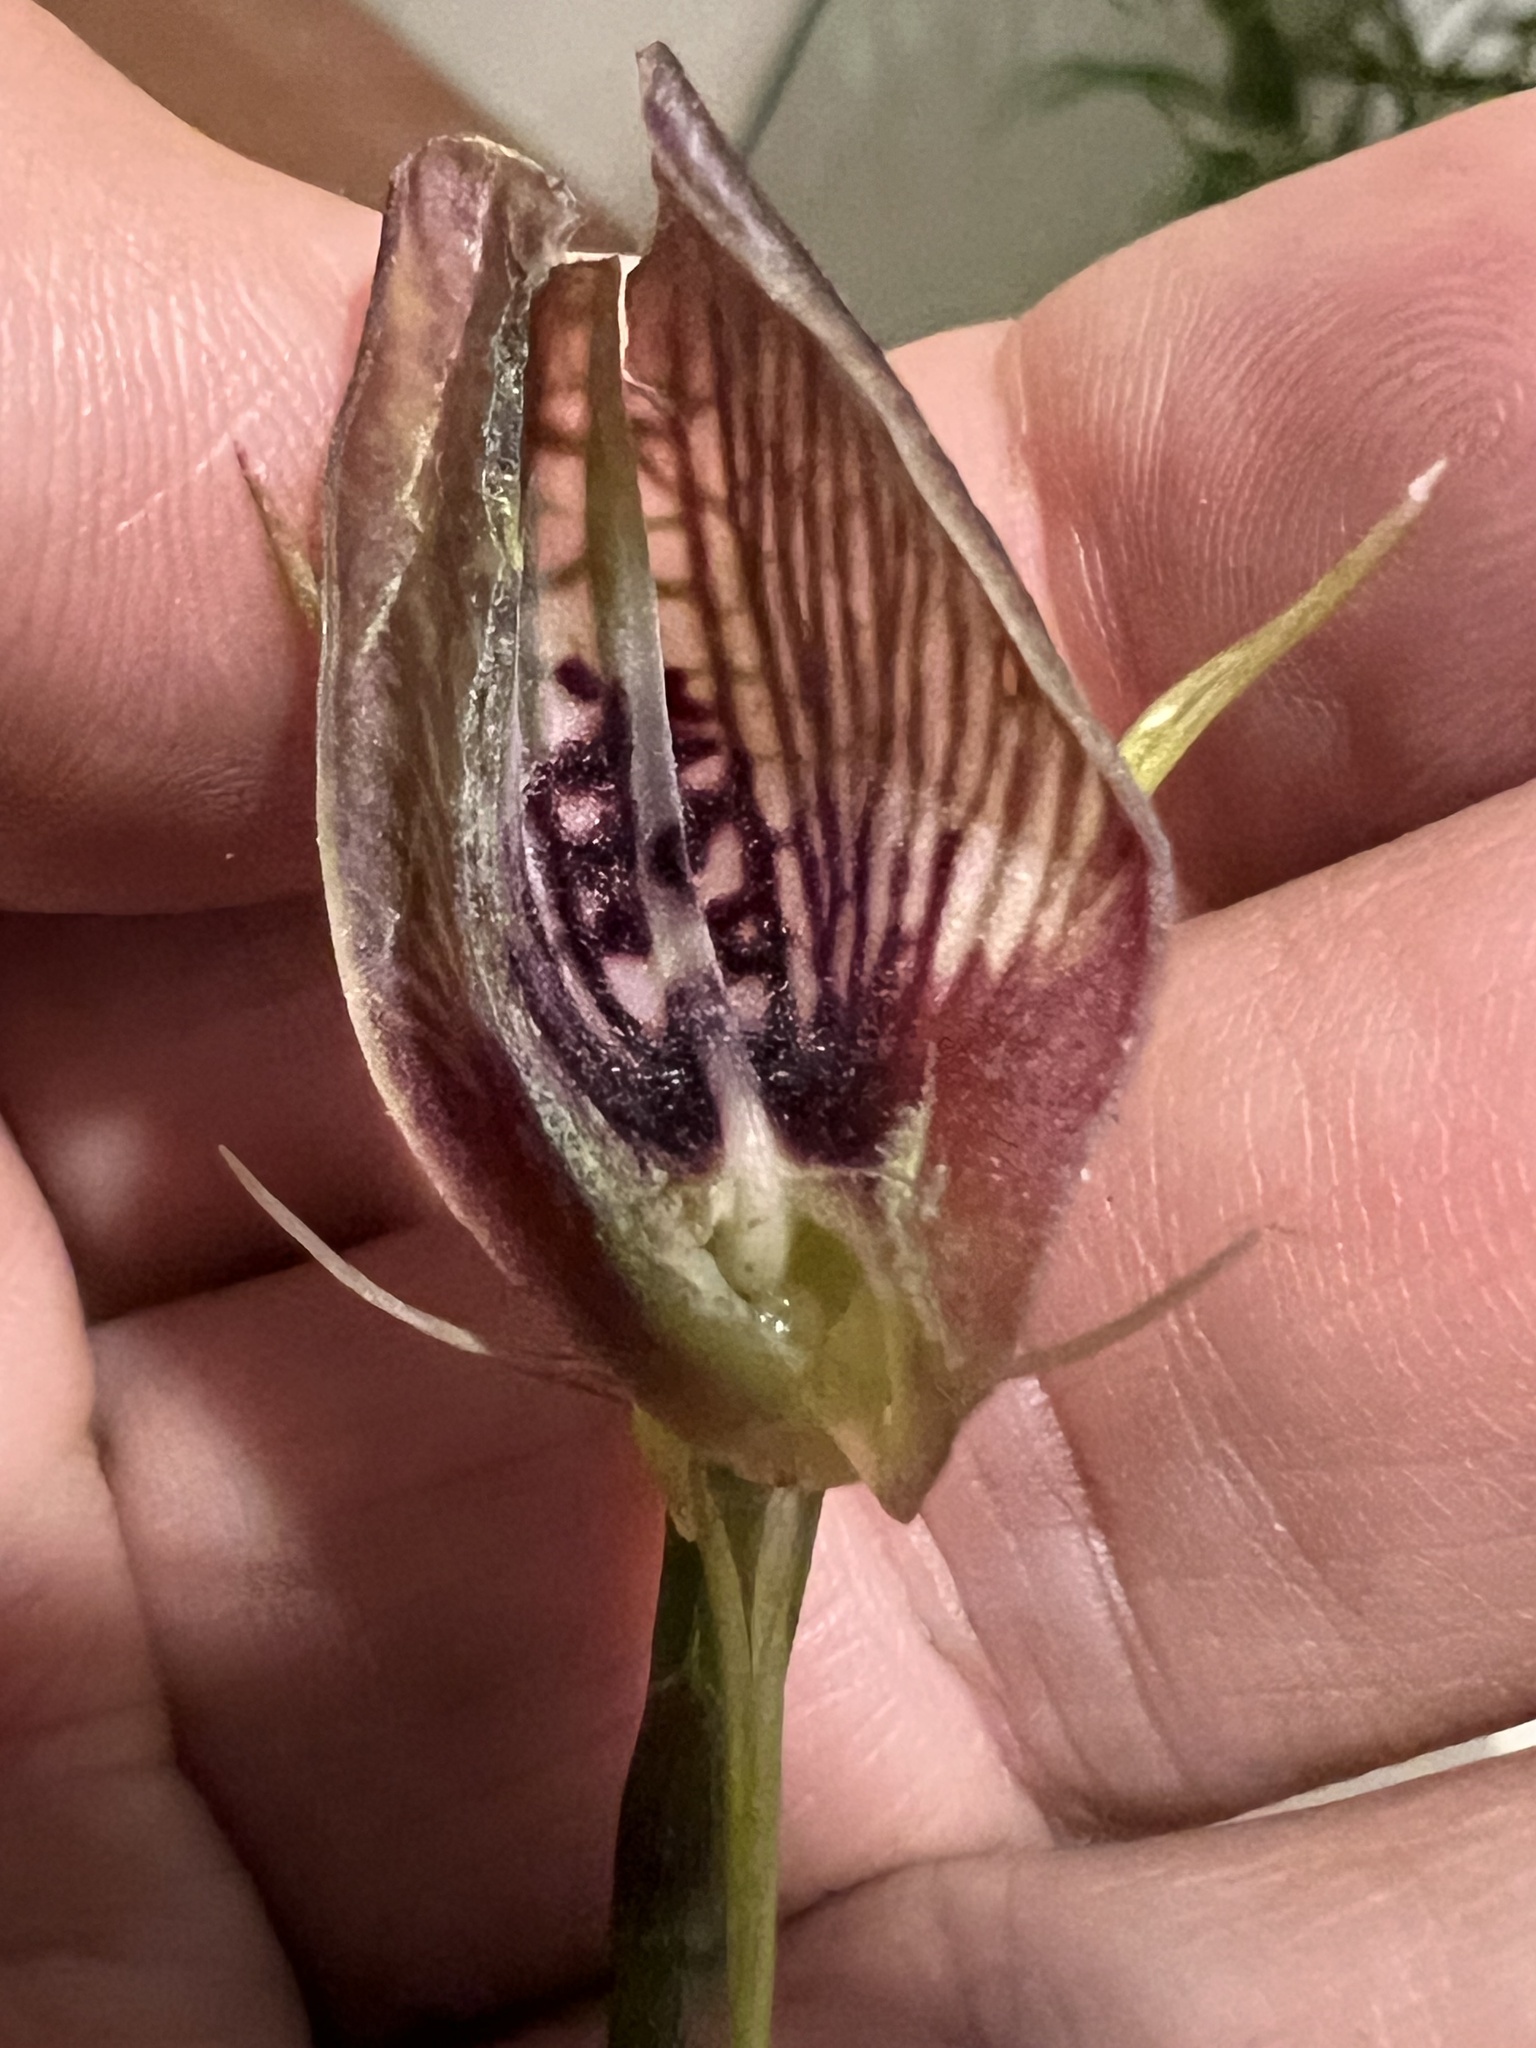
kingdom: Plantae
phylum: Tracheophyta
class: Liliopsida
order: Asparagales
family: Orchidaceae
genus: Cryptostylis
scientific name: Cryptostylis erecta
